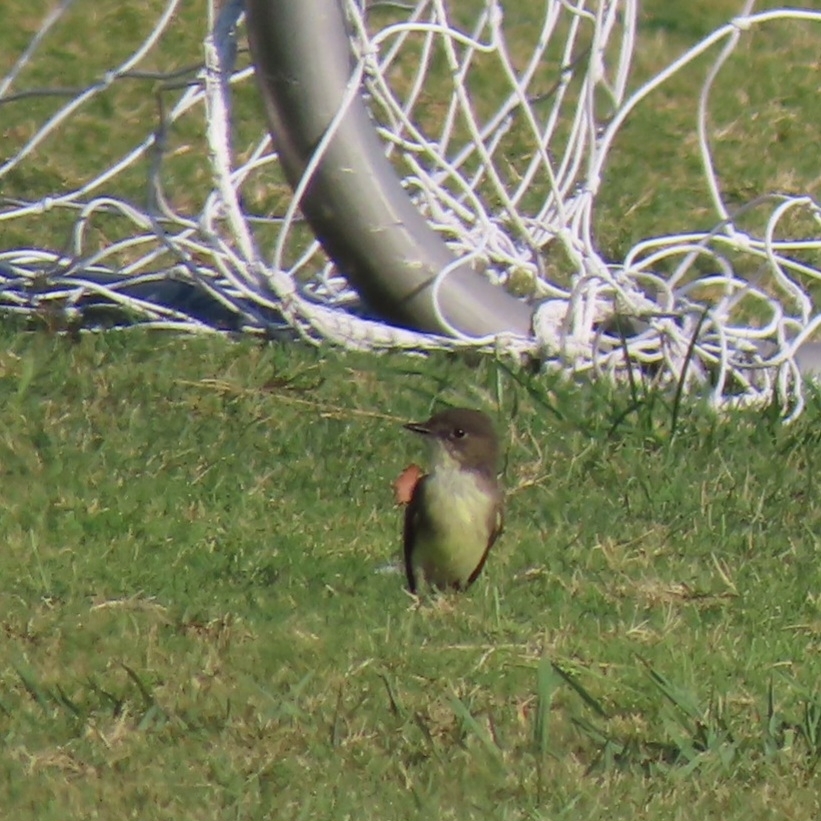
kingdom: Animalia
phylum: Chordata
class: Aves
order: Passeriformes
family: Tyrannidae
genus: Sayornis
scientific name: Sayornis phoebe
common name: Eastern phoebe
